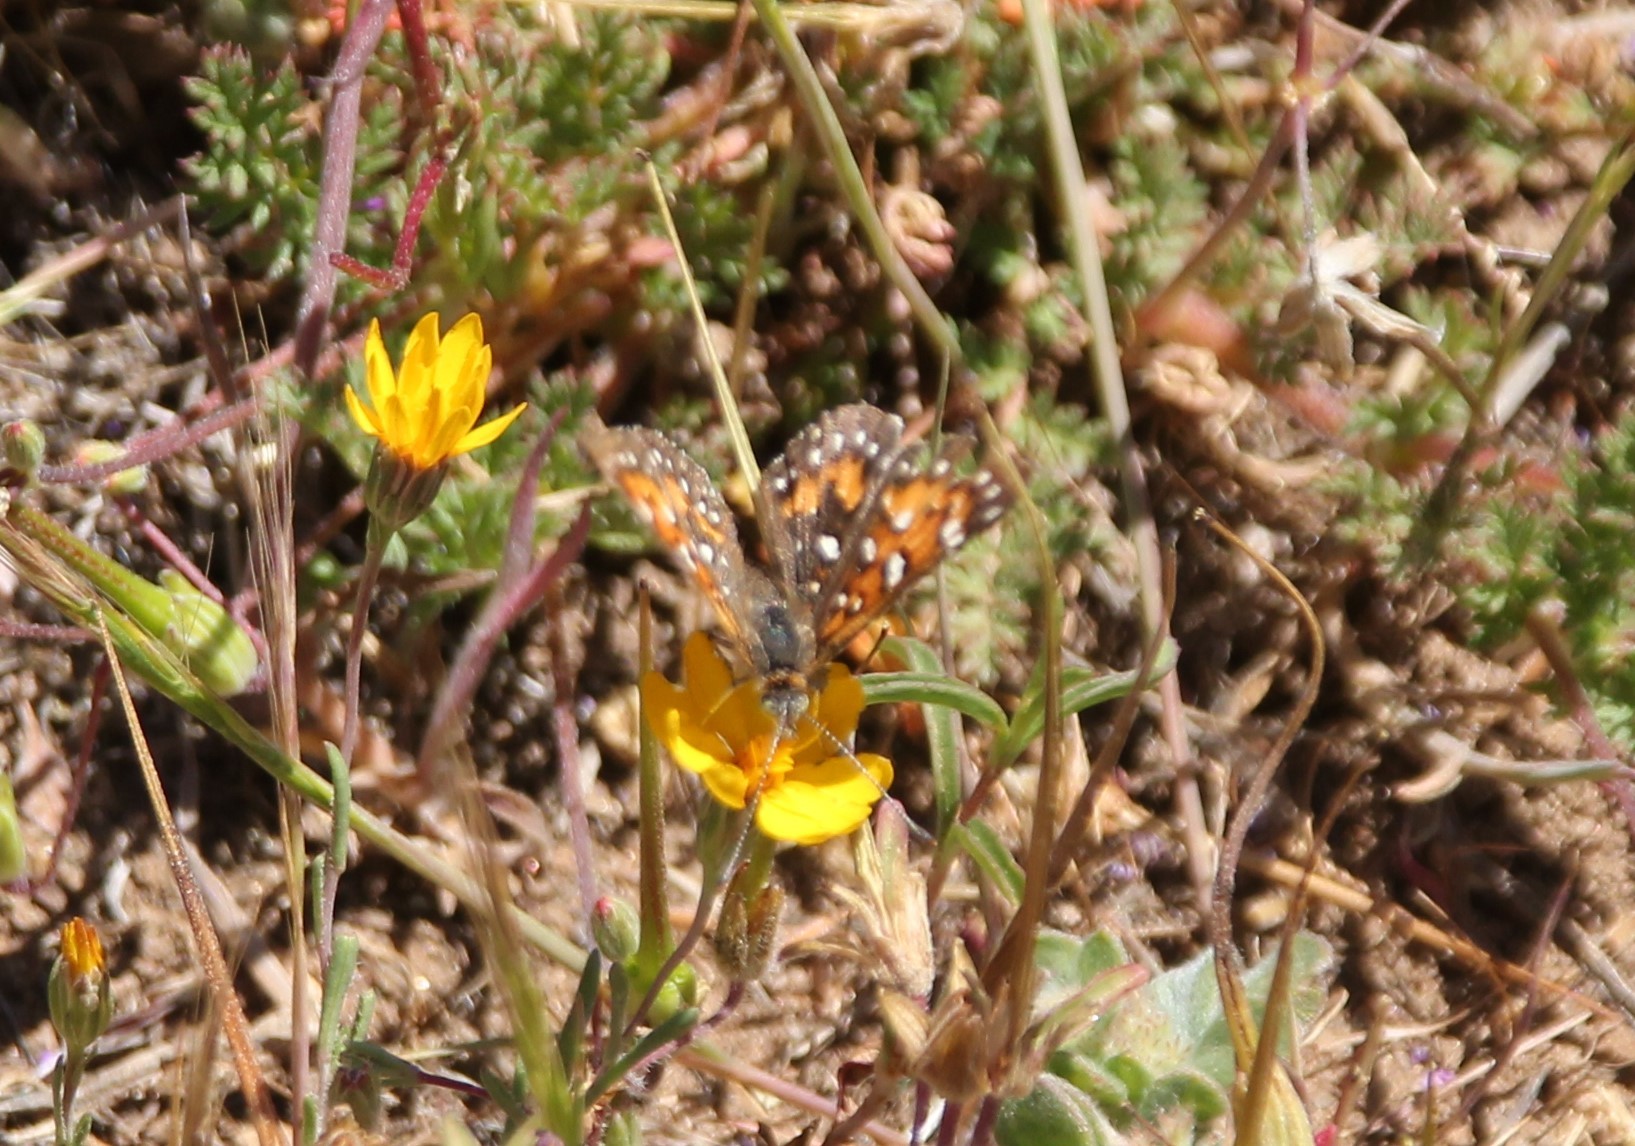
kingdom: Animalia
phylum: Arthropoda
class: Insecta
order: Lepidoptera
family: Riodinidae
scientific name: Riodinidae
